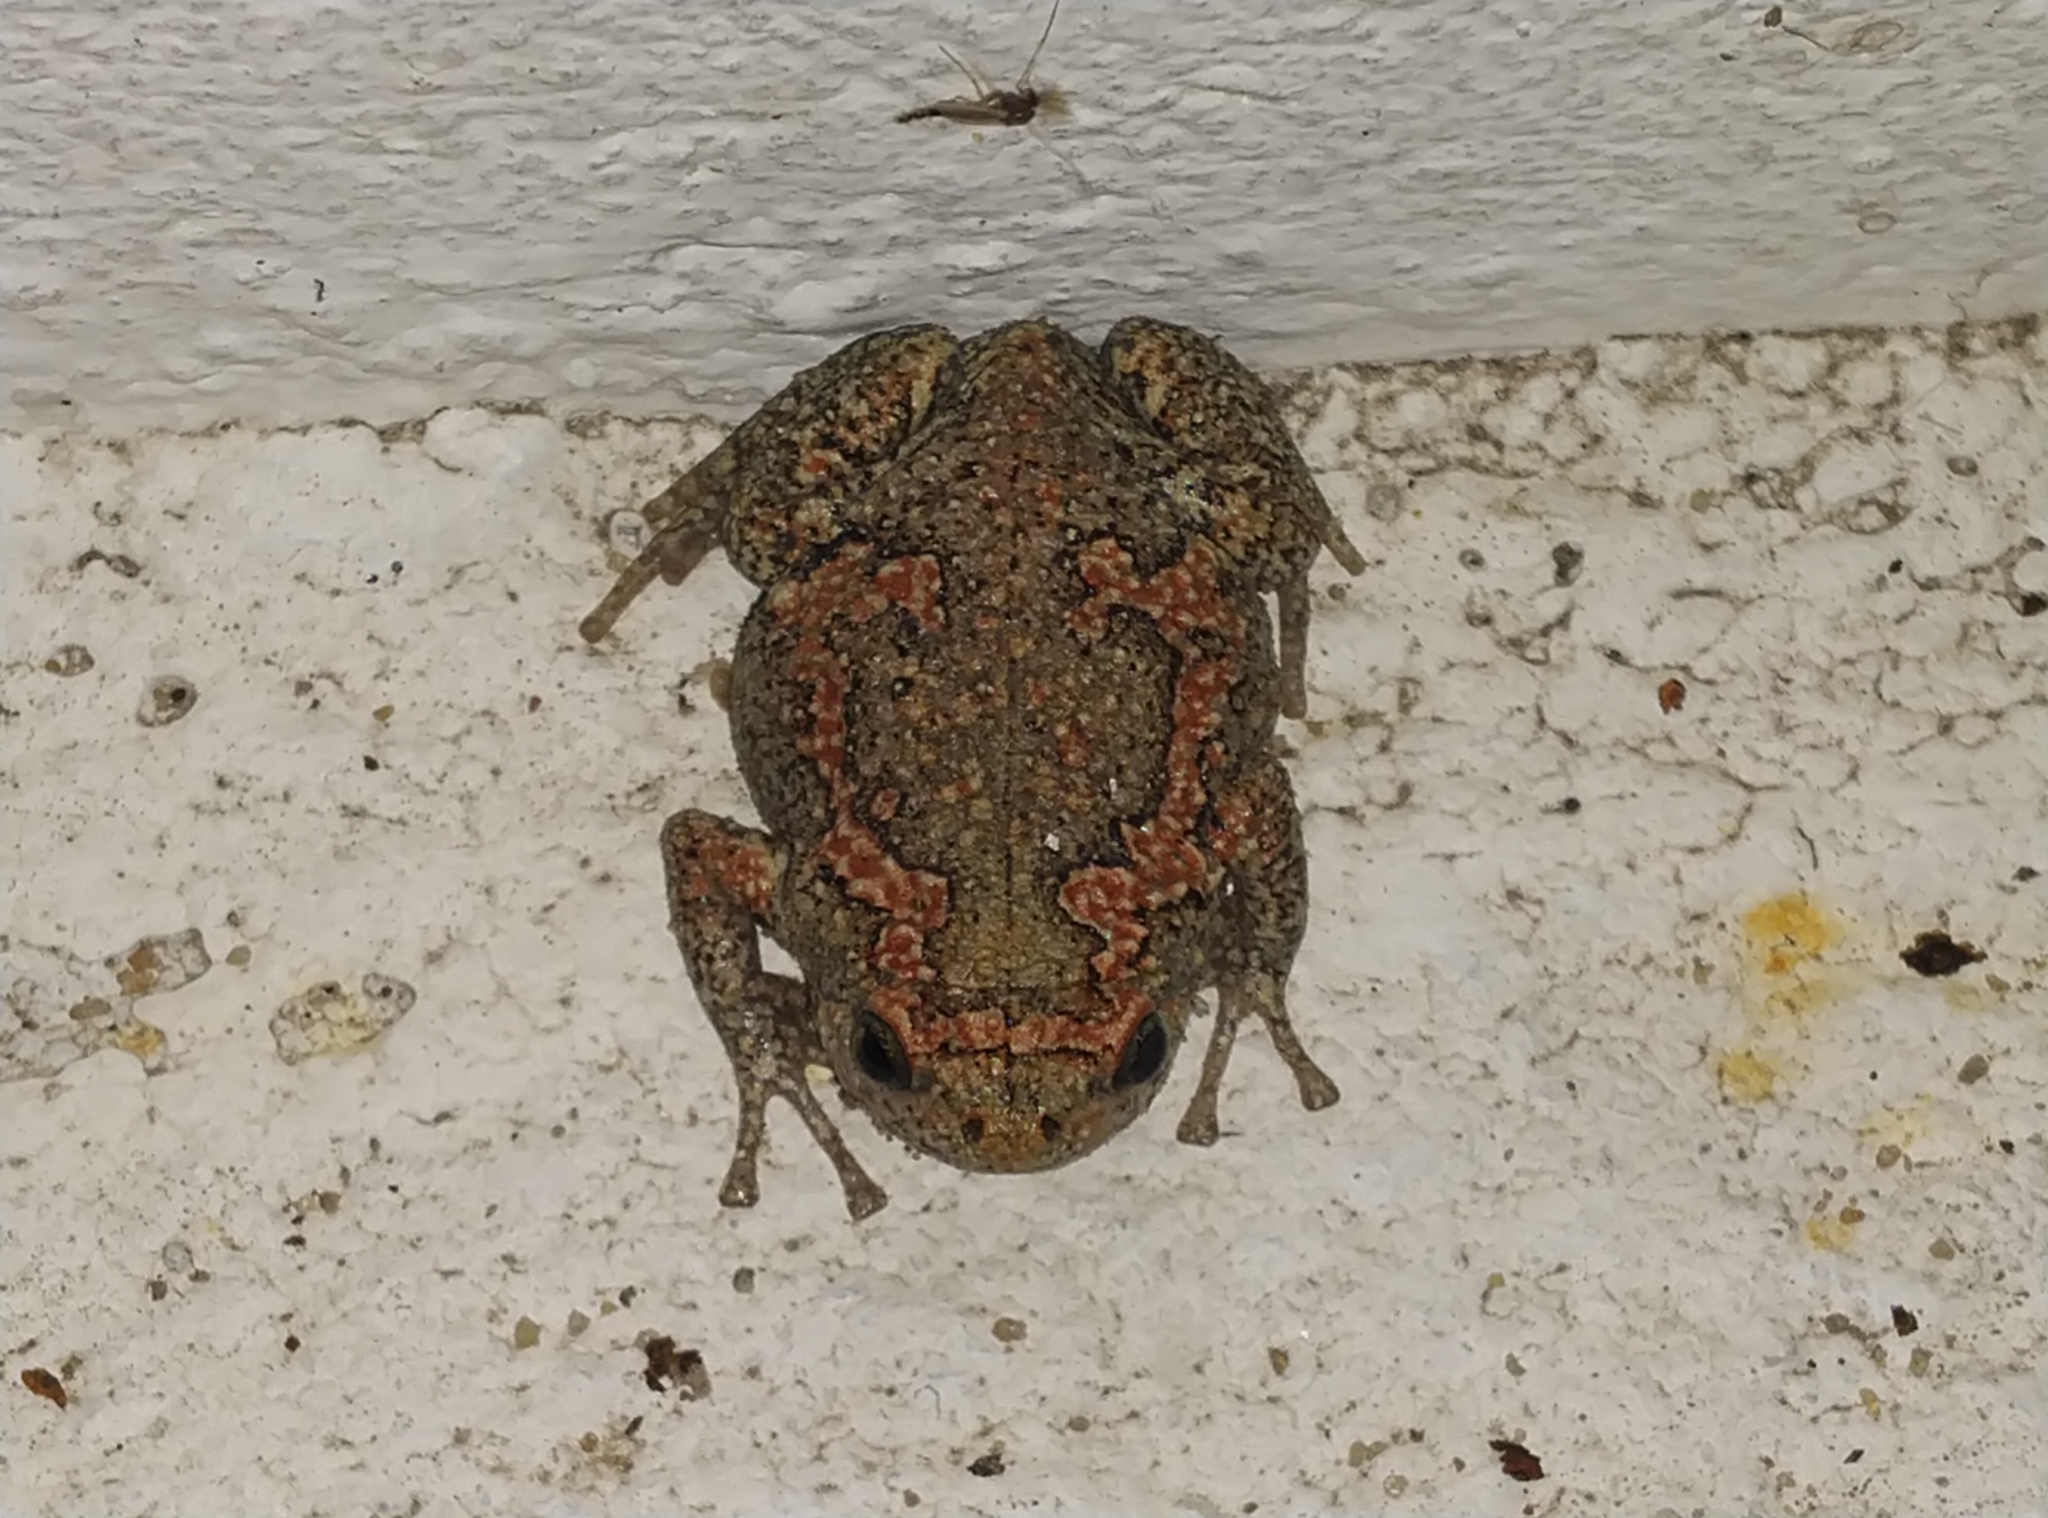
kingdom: Animalia
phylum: Chordata
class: Amphibia
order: Anura
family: Microhylidae
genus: Uperodon
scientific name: Uperodon taprobanicus
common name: Ceylon kaloula
